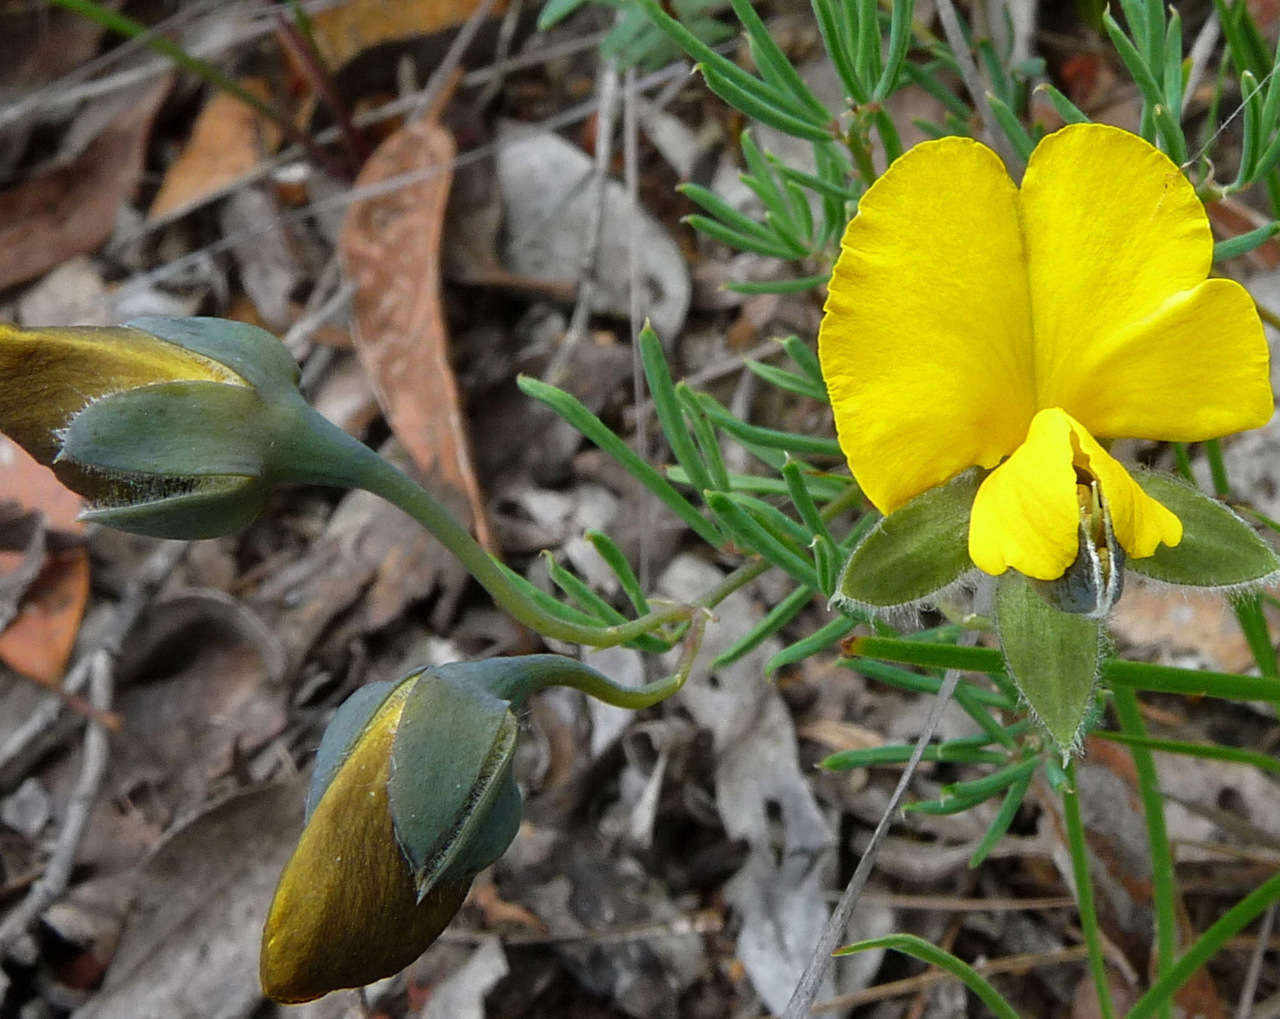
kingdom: Plantae
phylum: Tracheophyta
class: Magnoliopsida
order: Fabales
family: Fabaceae
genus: Gompholobium
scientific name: Gompholobium huegelii
